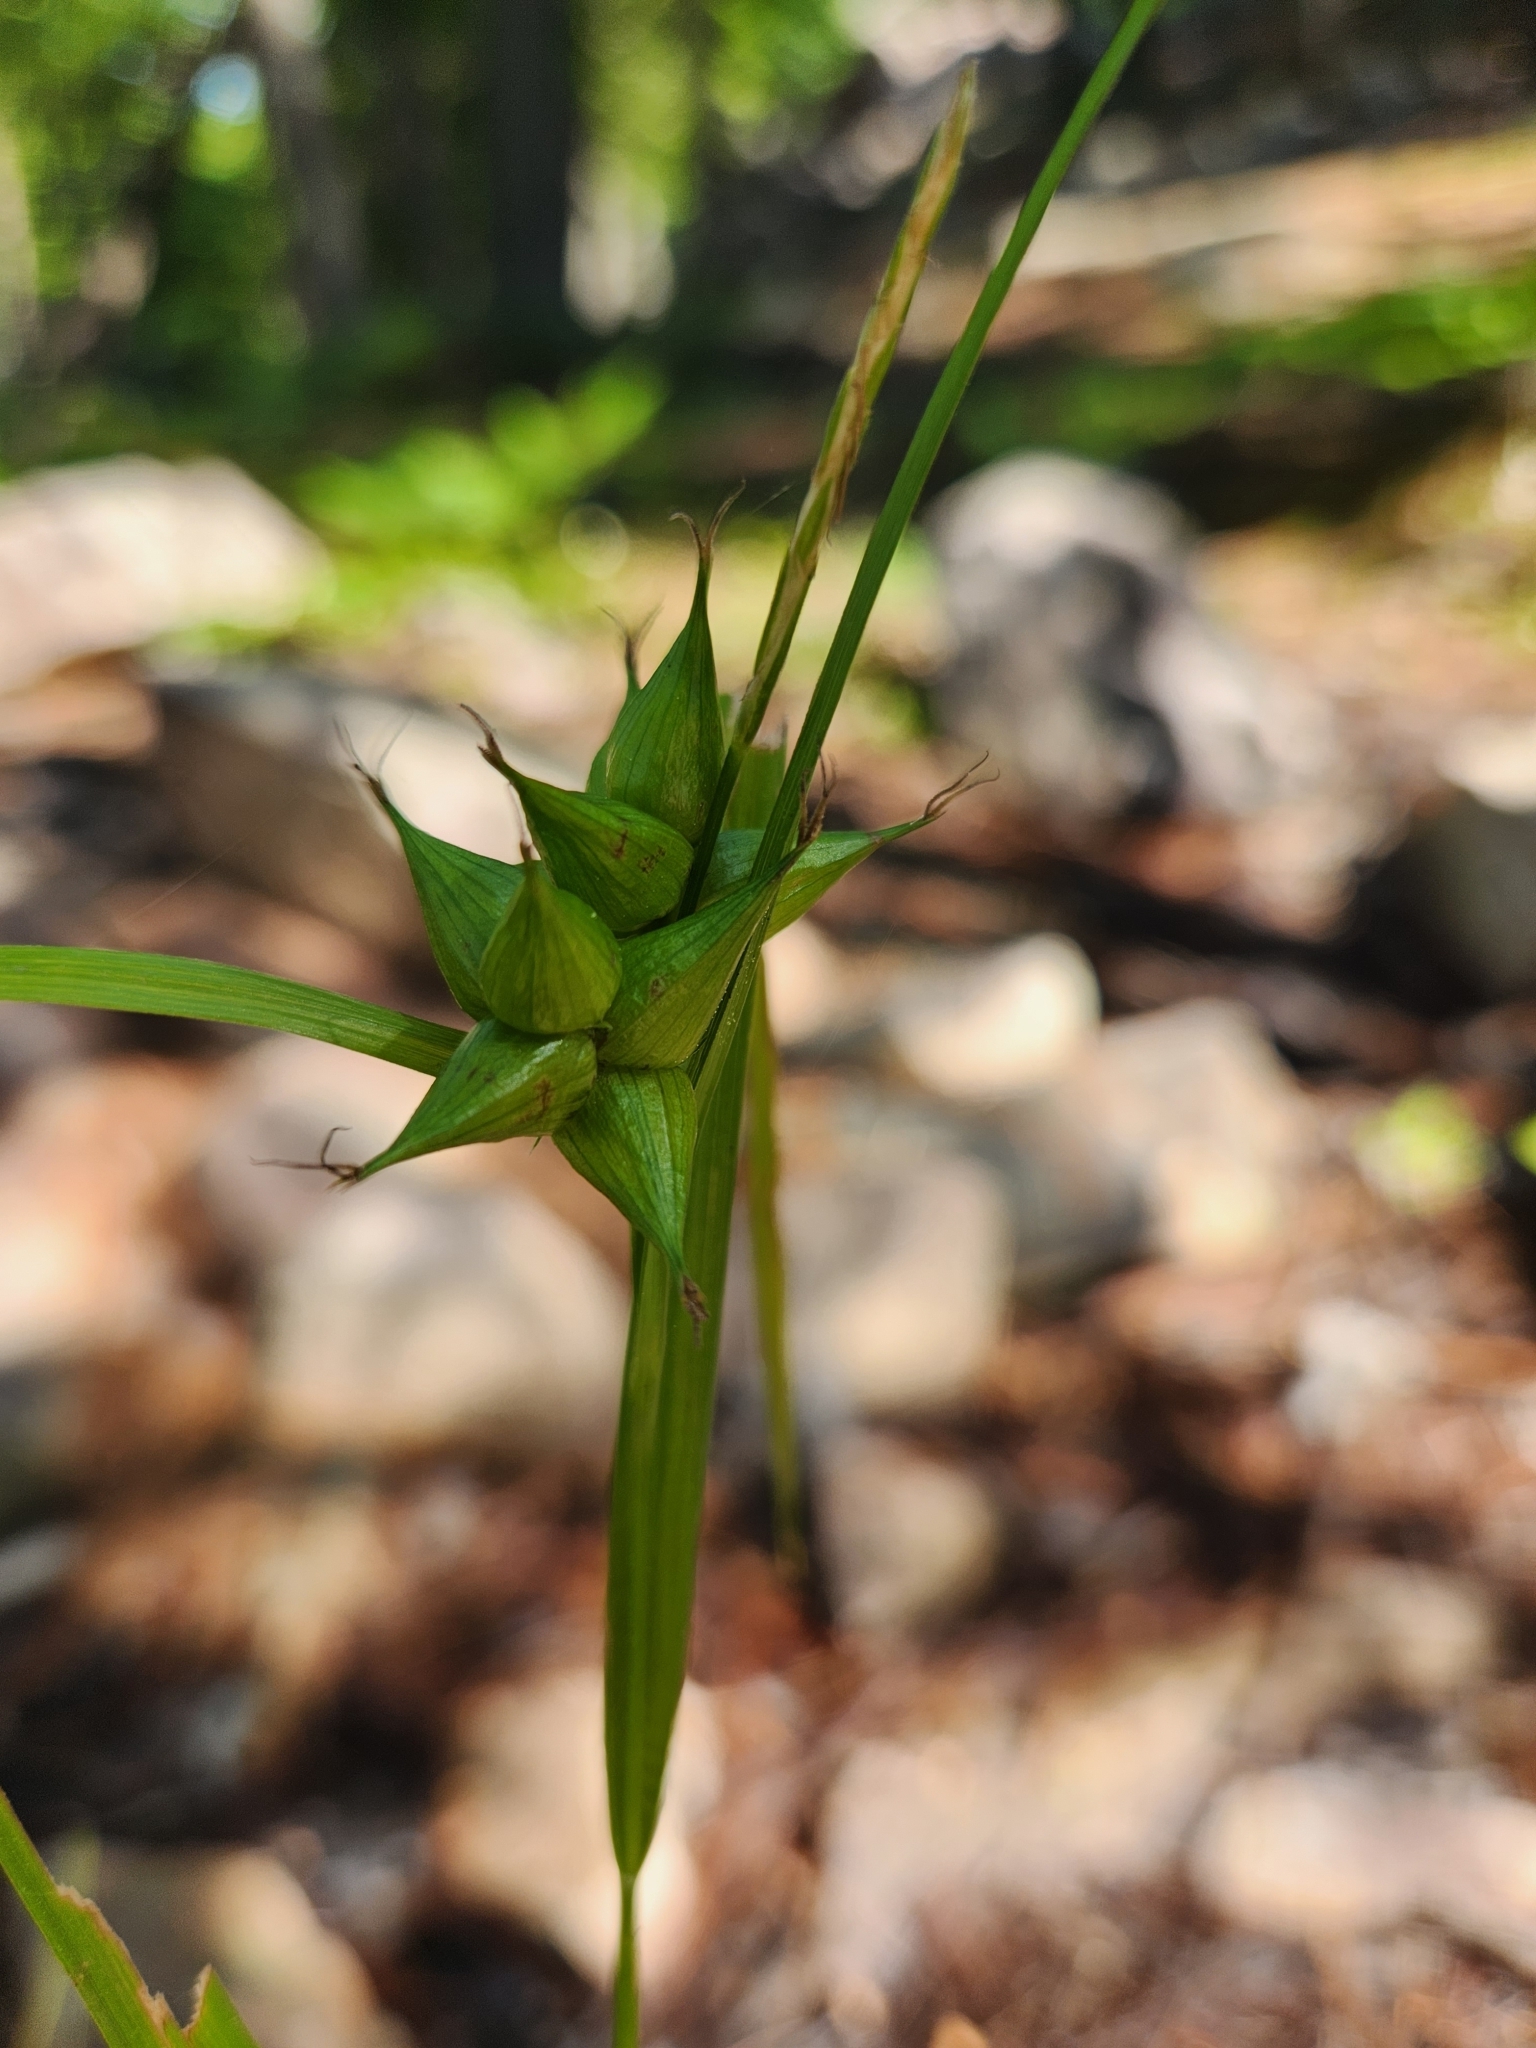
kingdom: Plantae
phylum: Tracheophyta
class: Liliopsida
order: Poales
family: Cyperaceae
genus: Carex
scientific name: Carex intumescens
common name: Greater bladder sedge
